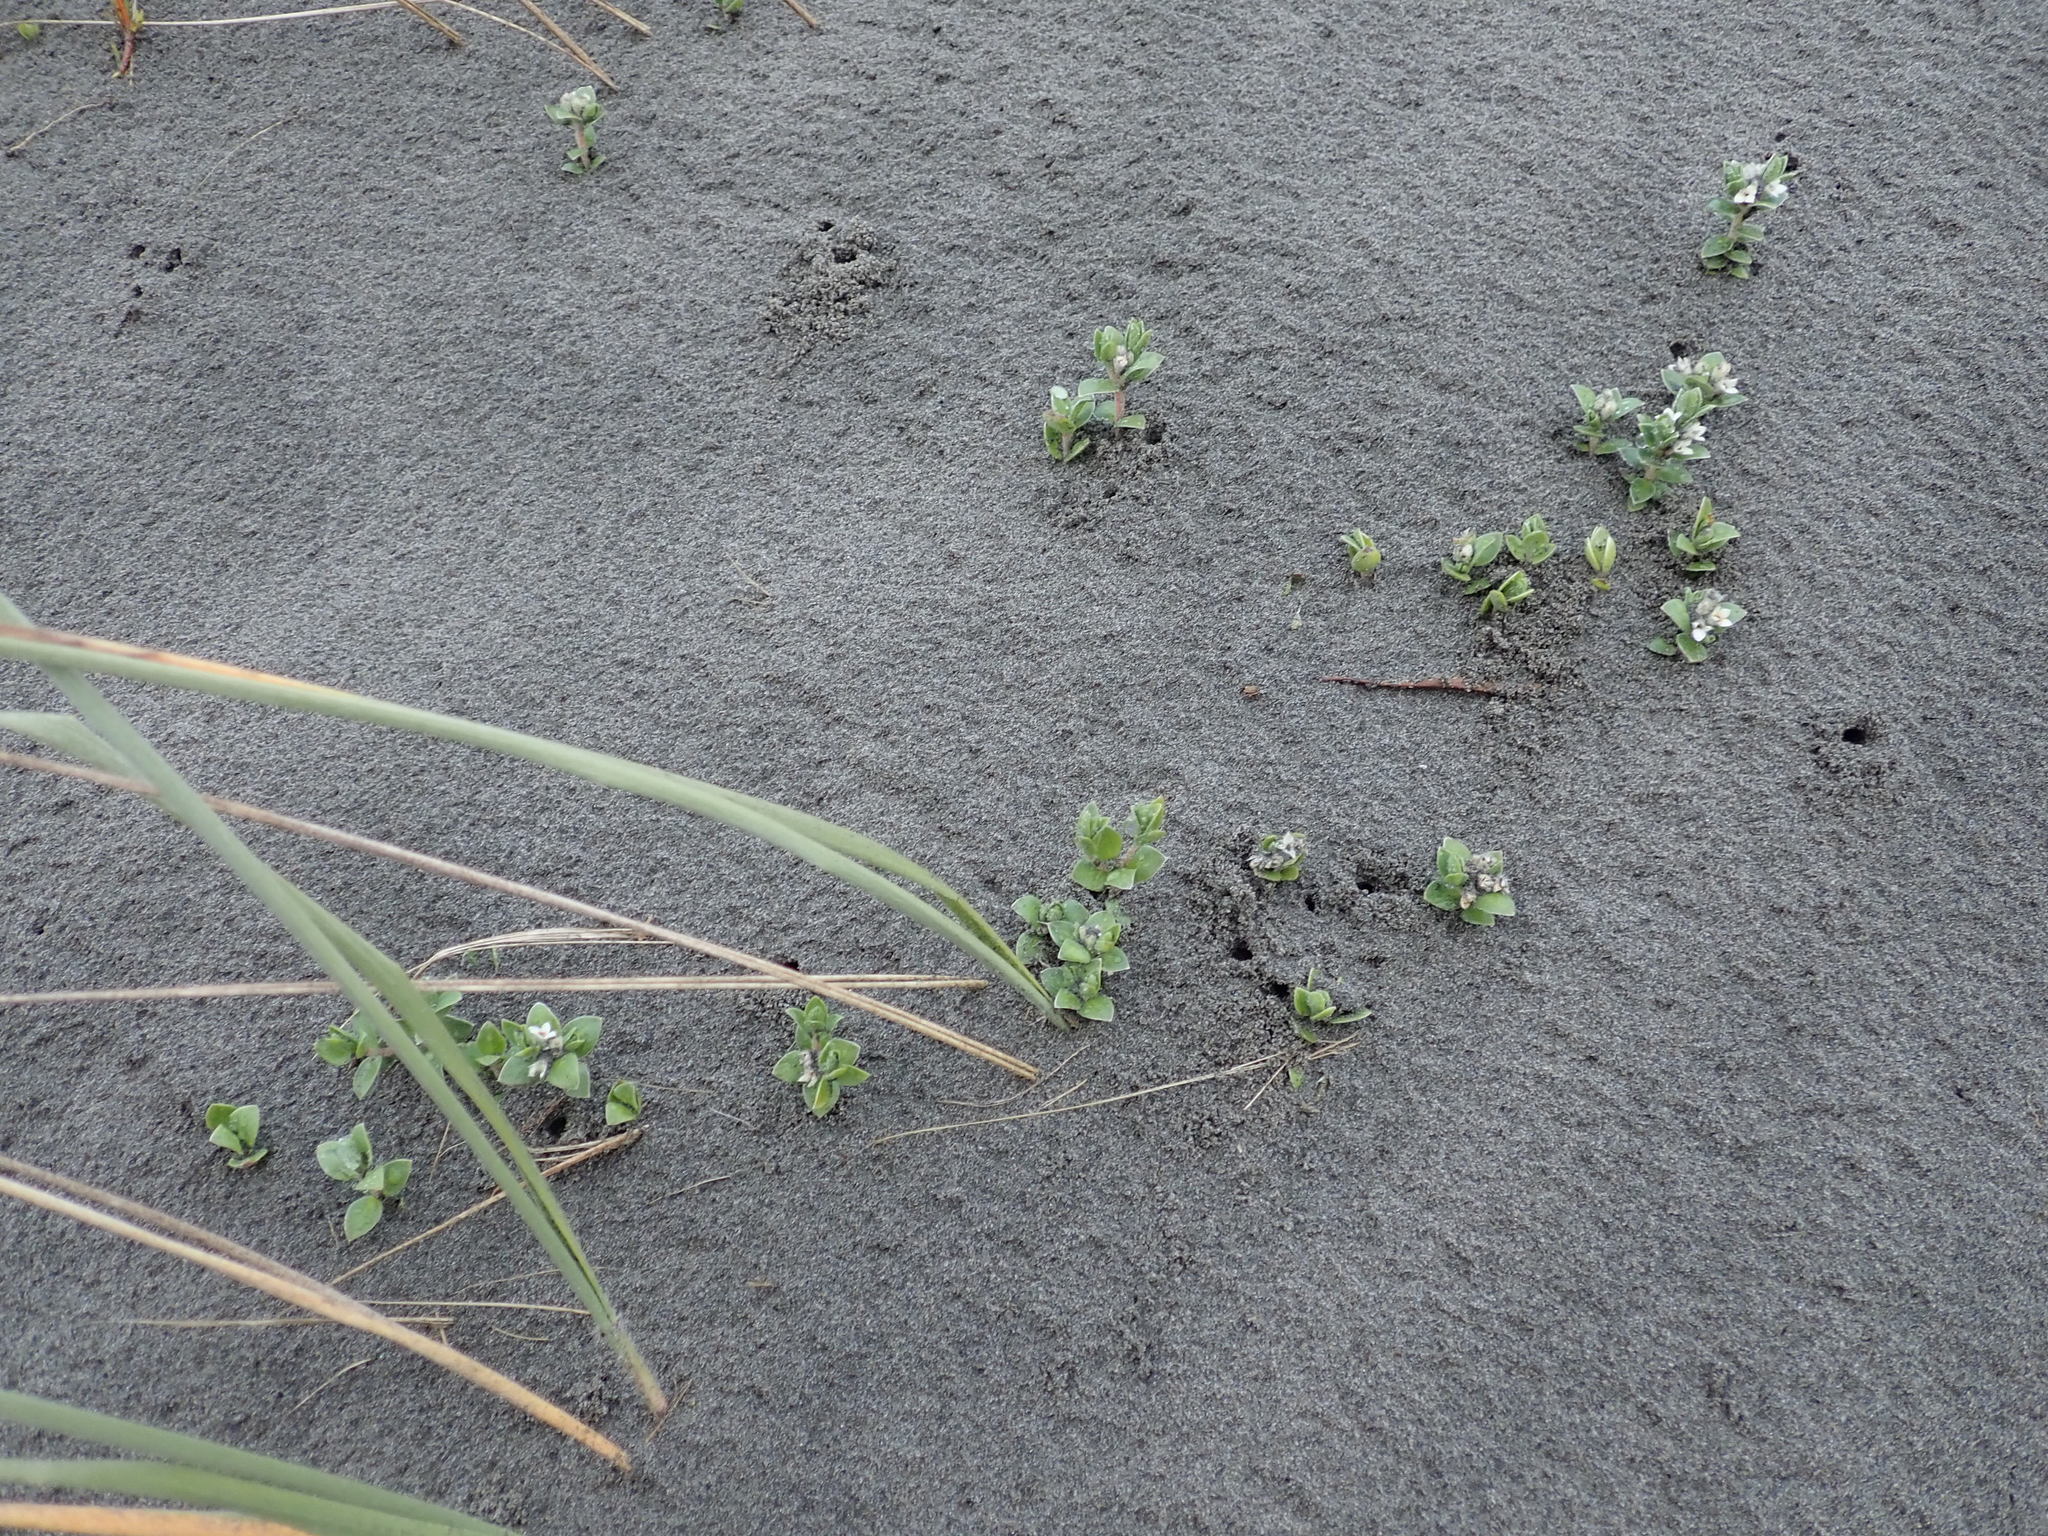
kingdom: Plantae
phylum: Tracheophyta
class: Magnoliopsida
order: Malvales
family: Thymelaeaceae
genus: Pimelea
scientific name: Pimelea villosa
